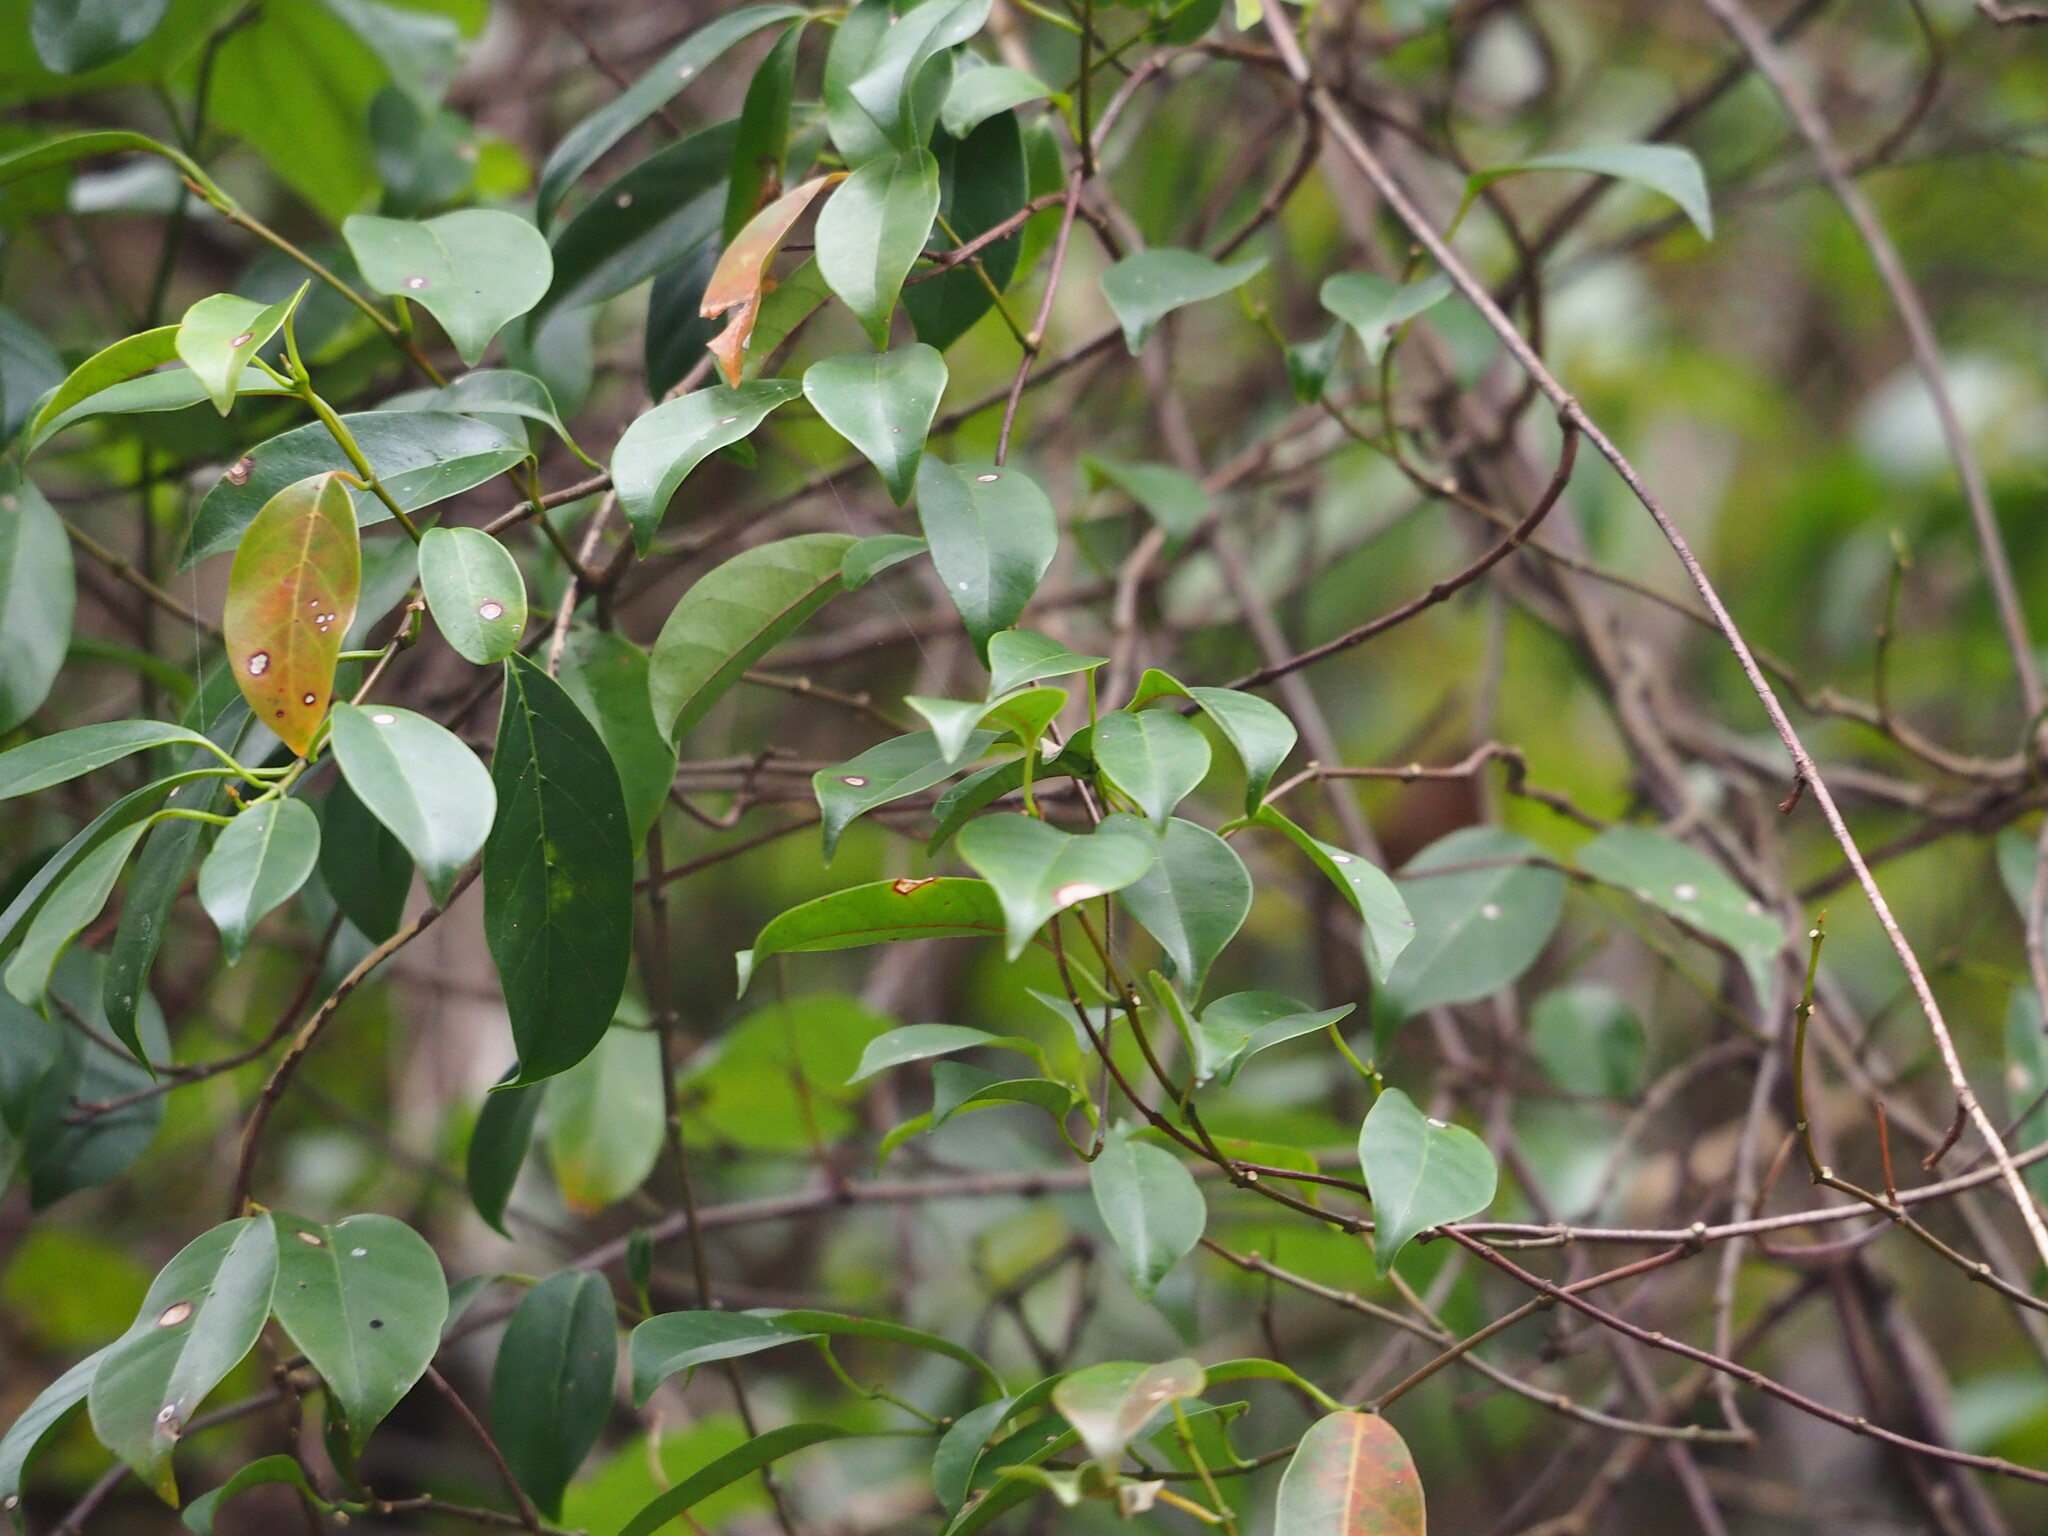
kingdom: Plantae
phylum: Tracheophyta
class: Magnoliopsida
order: Gentianales
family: Apocynaceae
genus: Urceola
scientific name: Urceola rosea
